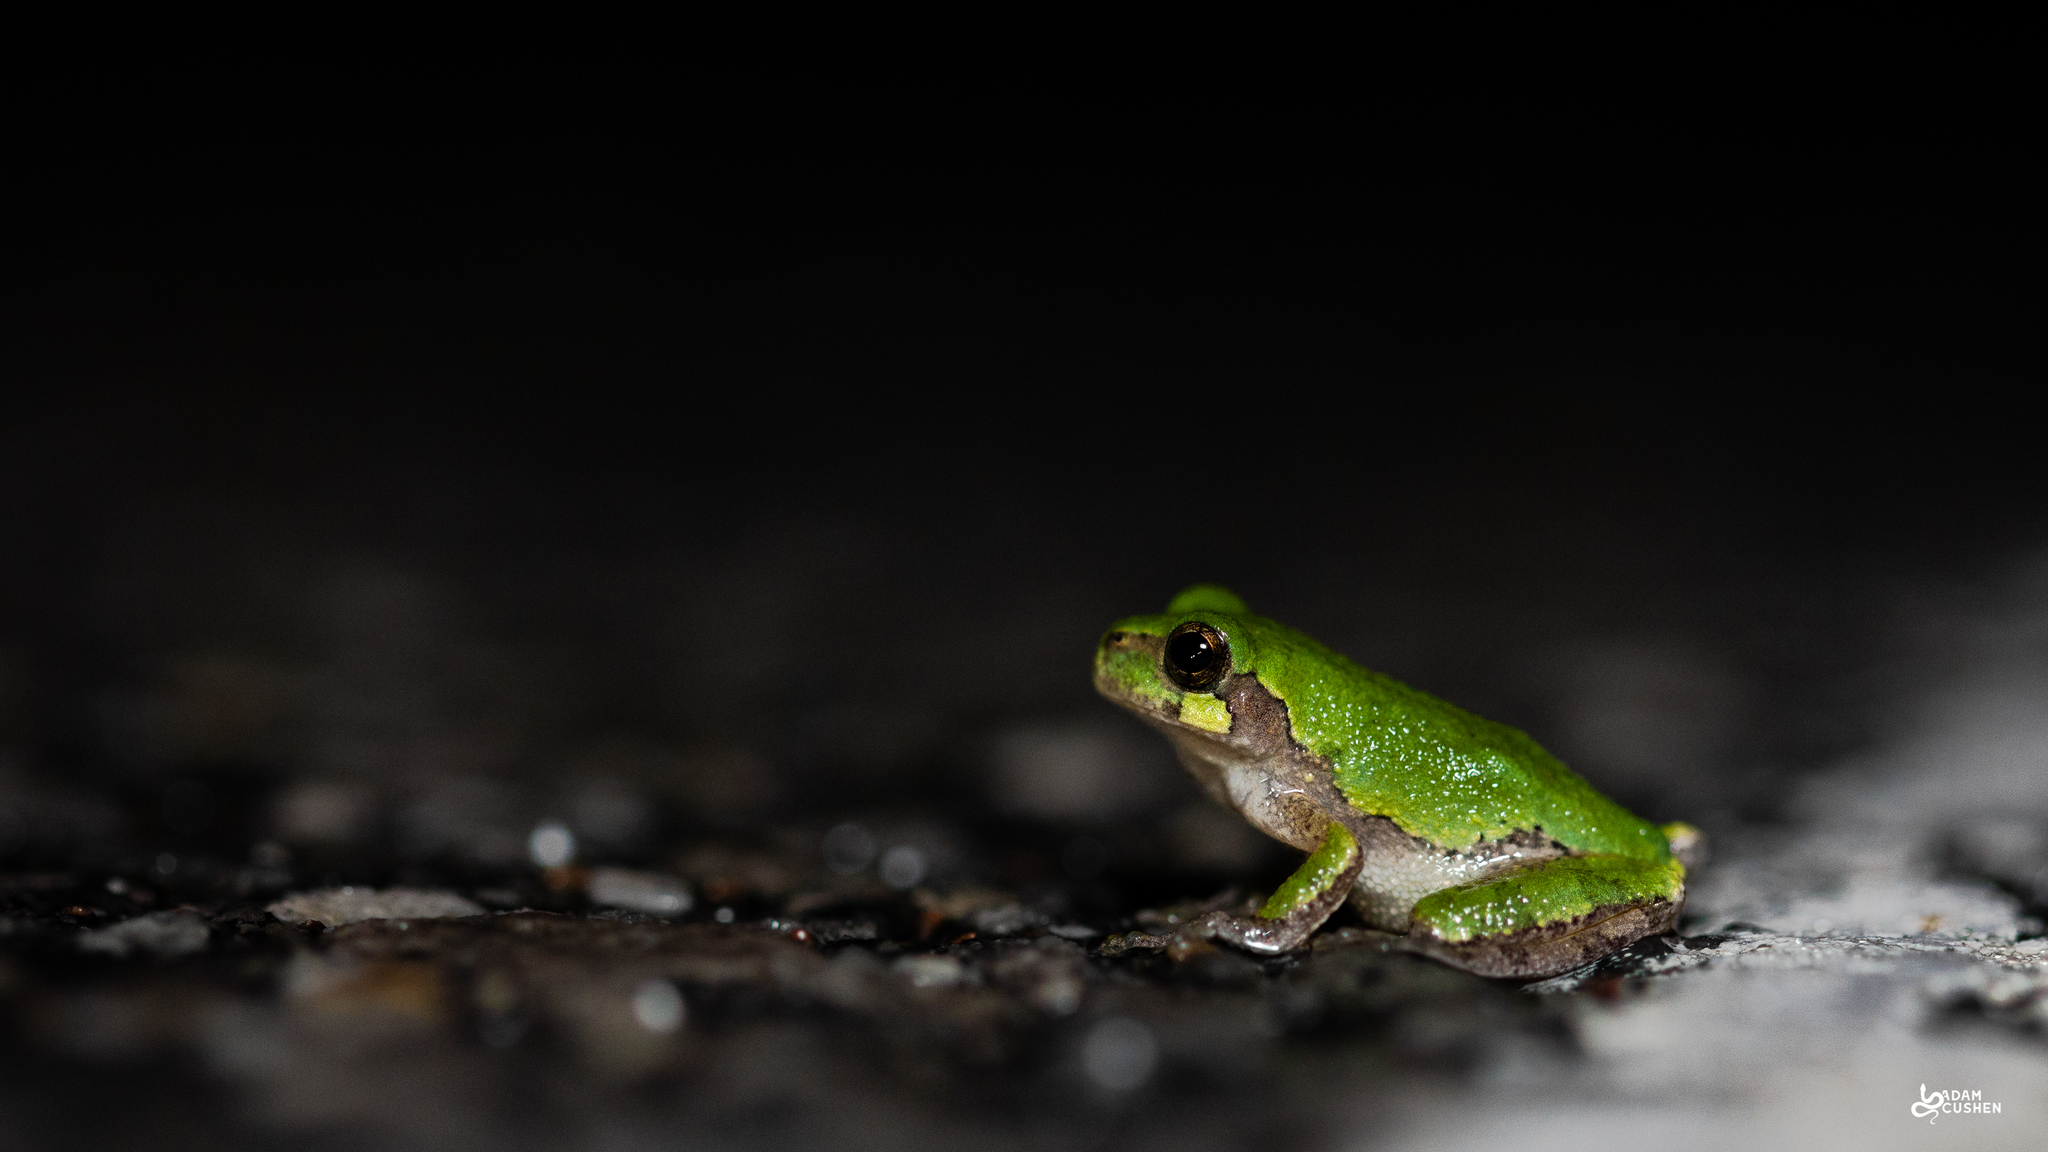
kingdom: Animalia
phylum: Chordata
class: Amphibia
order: Anura
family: Hylidae
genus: Dryophytes
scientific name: Dryophytes versicolor
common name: Gray treefrog
